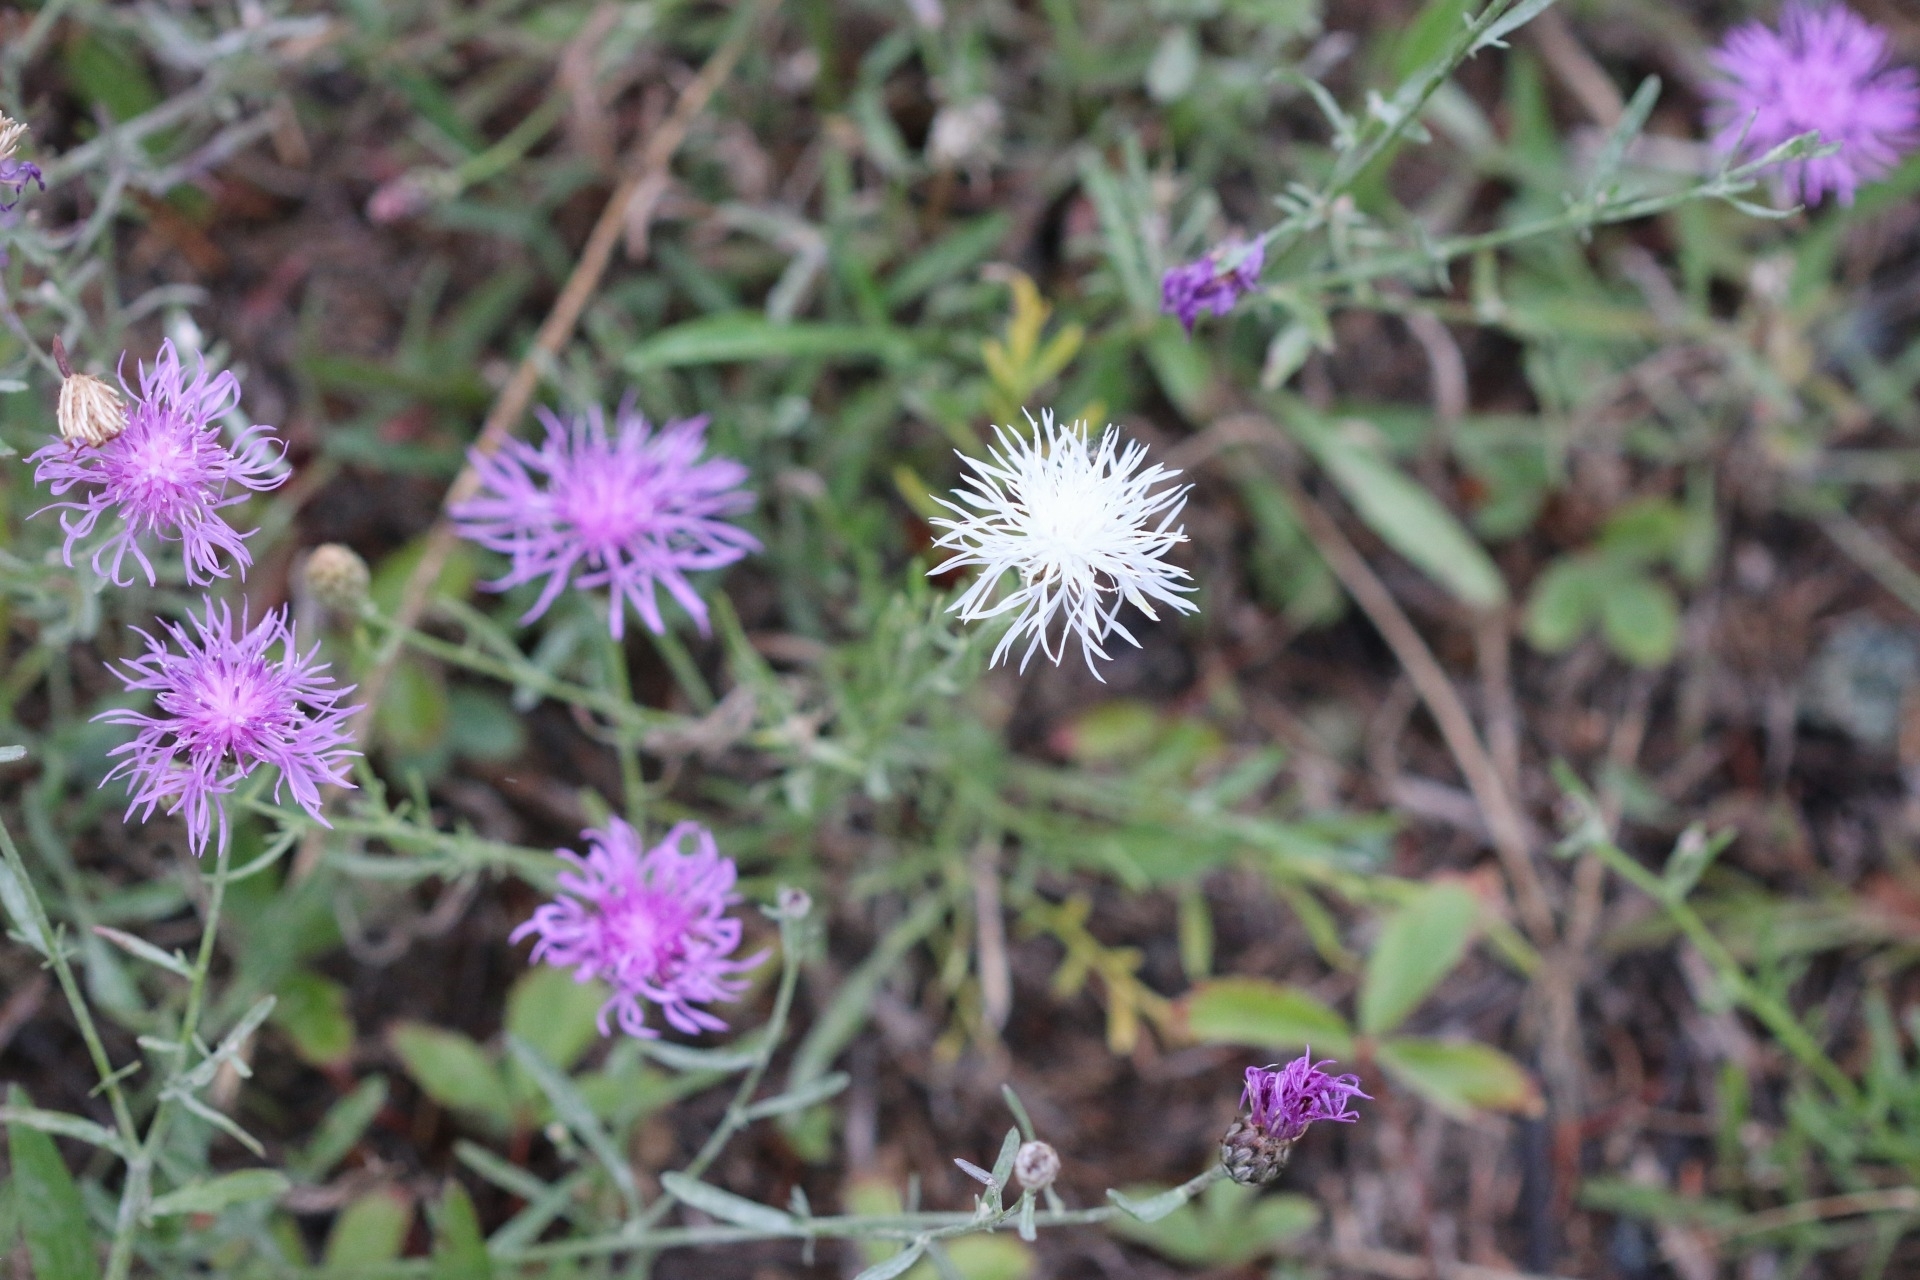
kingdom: Plantae
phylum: Tracheophyta
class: Magnoliopsida
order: Asterales
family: Asteraceae
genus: Centaurea
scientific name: Centaurea stoebe
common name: Spotted knapweed
